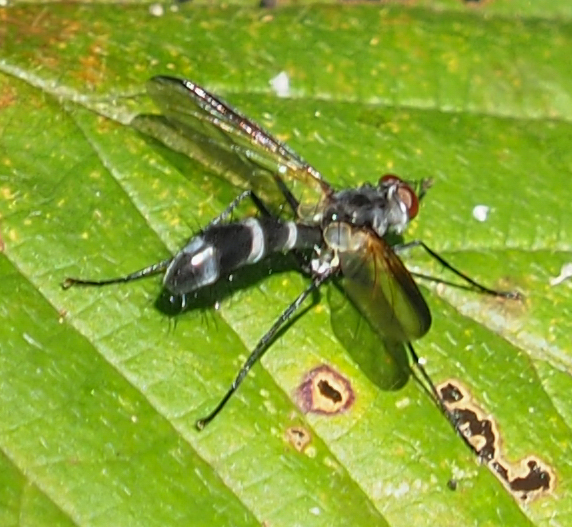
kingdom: Animalia
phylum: Arthropoda
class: Insecta
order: Diptera
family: Tachinidae
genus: Cordyligaster
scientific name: Cordyligaster septentrionalis
